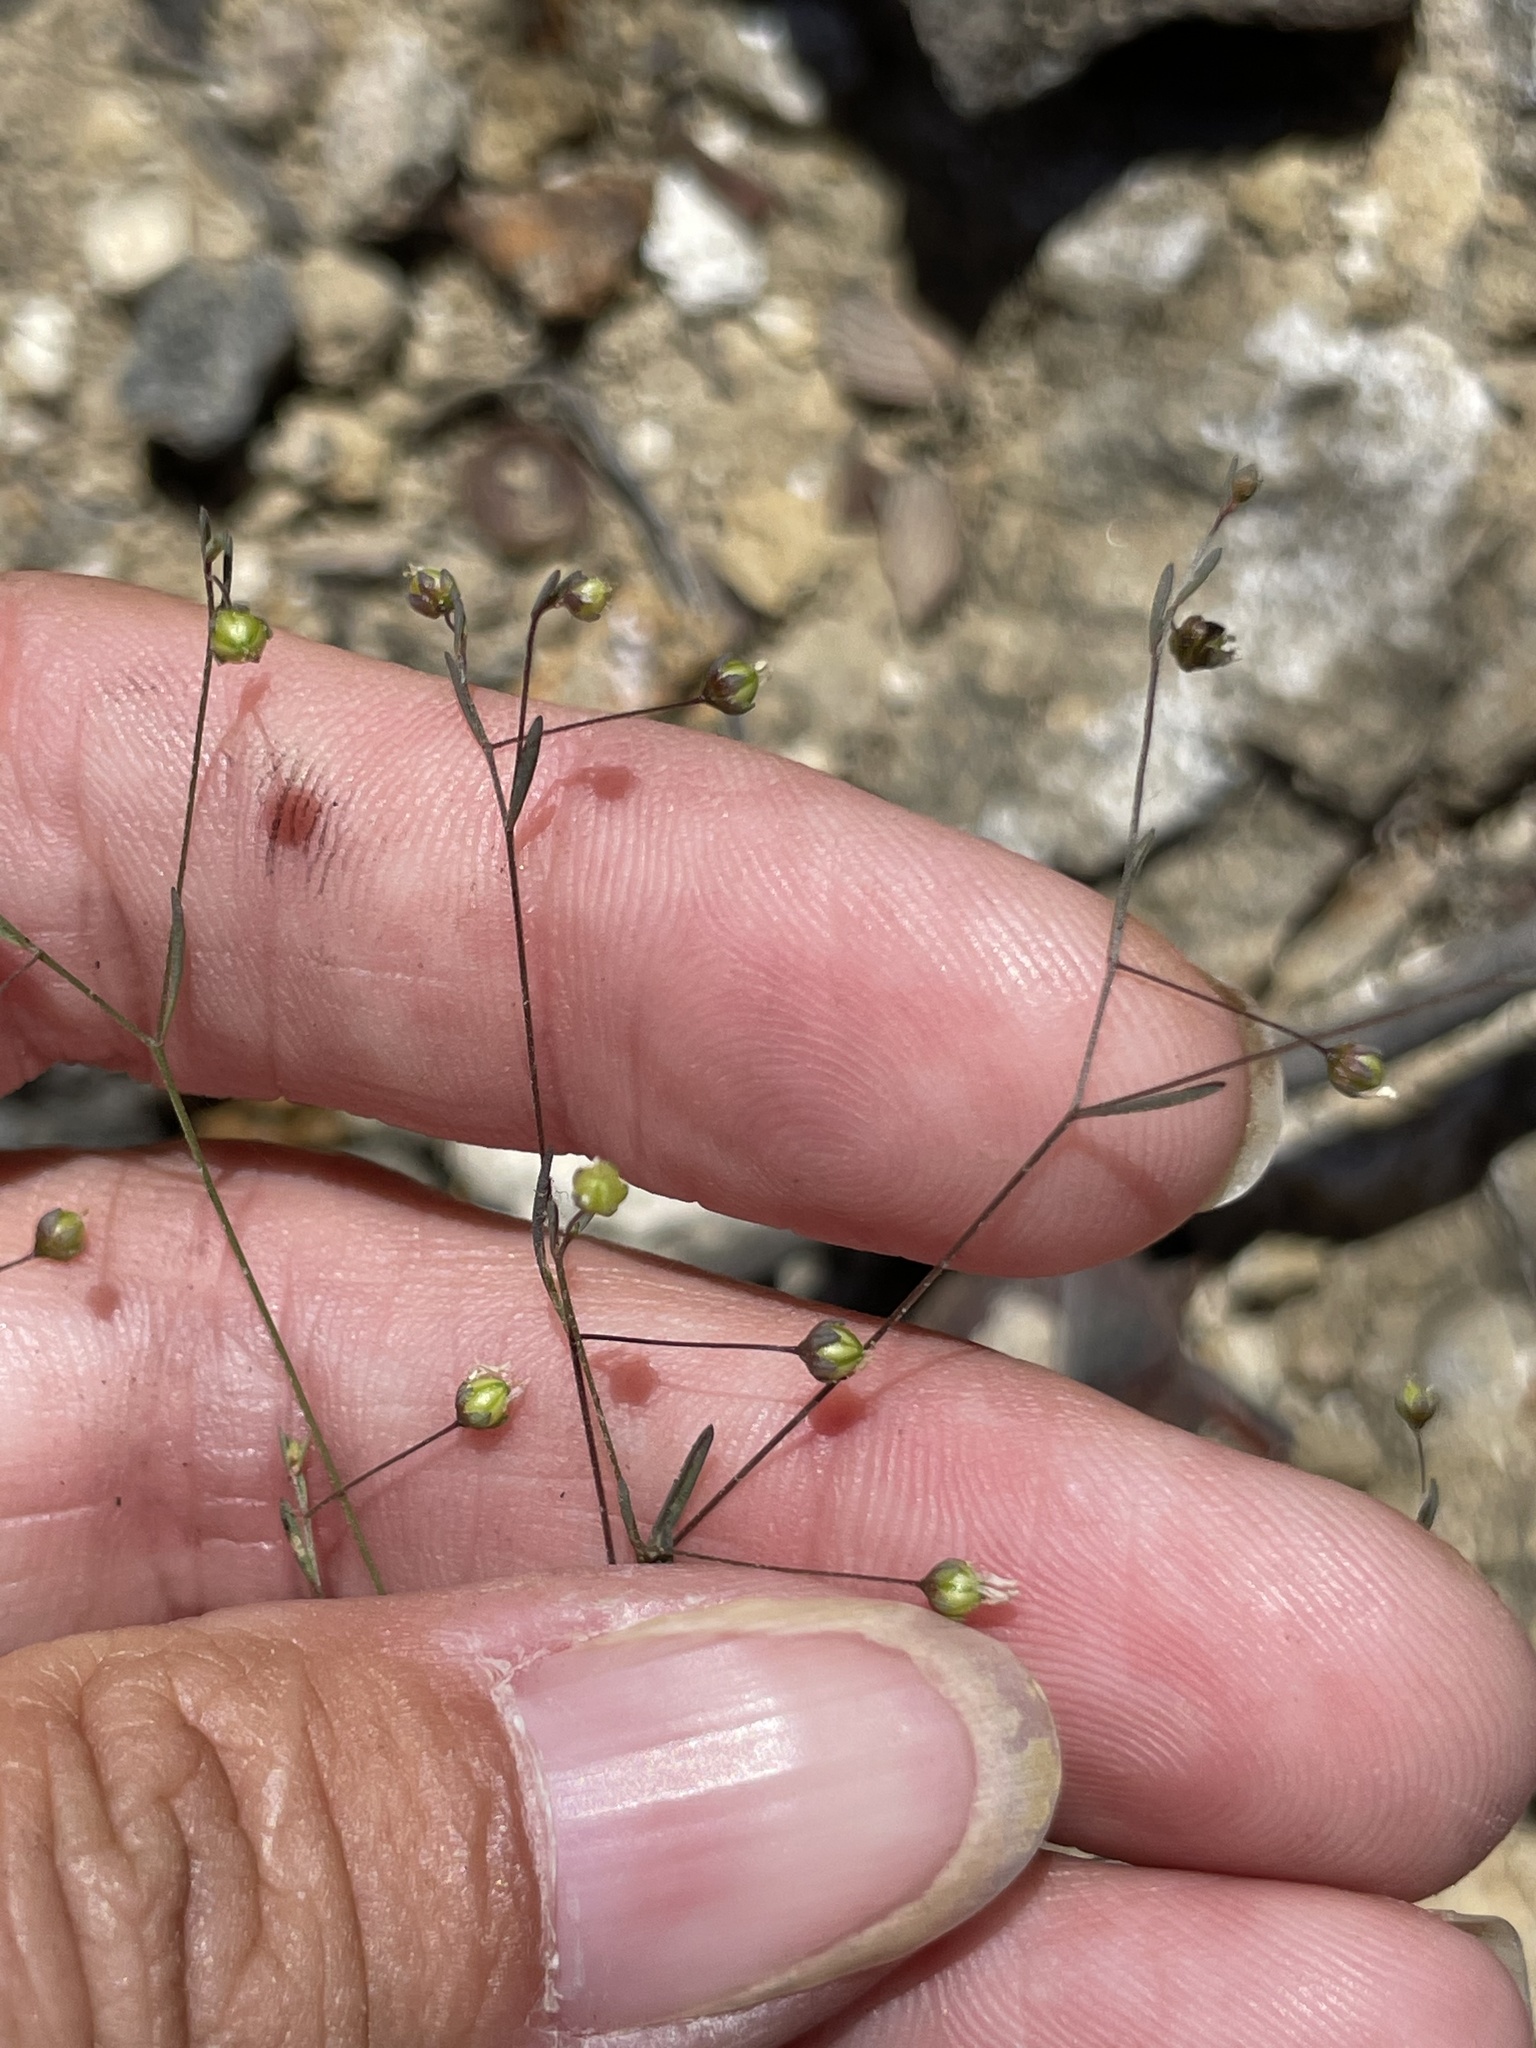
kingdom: Plantae
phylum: Tracheophyta
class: Magnoliopsida
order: Malpighiales
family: Linaceae
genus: Hesperolinon
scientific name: Hesperolinon micranthum
